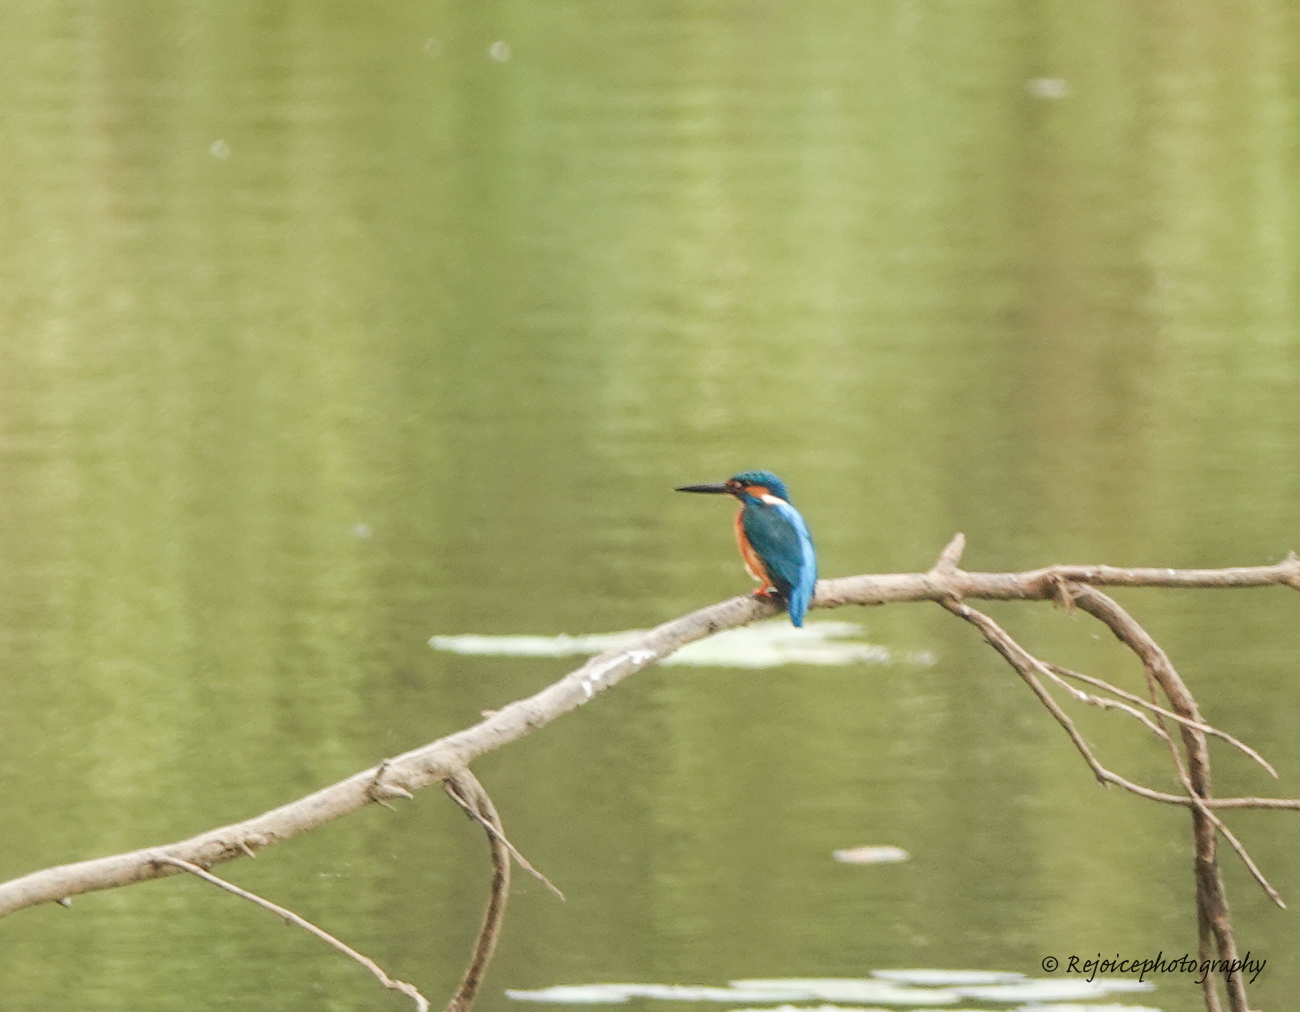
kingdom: Animalia
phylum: Chordata
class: Aves
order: Coraciiformes
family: Alcedinidae
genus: Alcedo
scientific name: Alcedo atthis
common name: Common kingfisher
